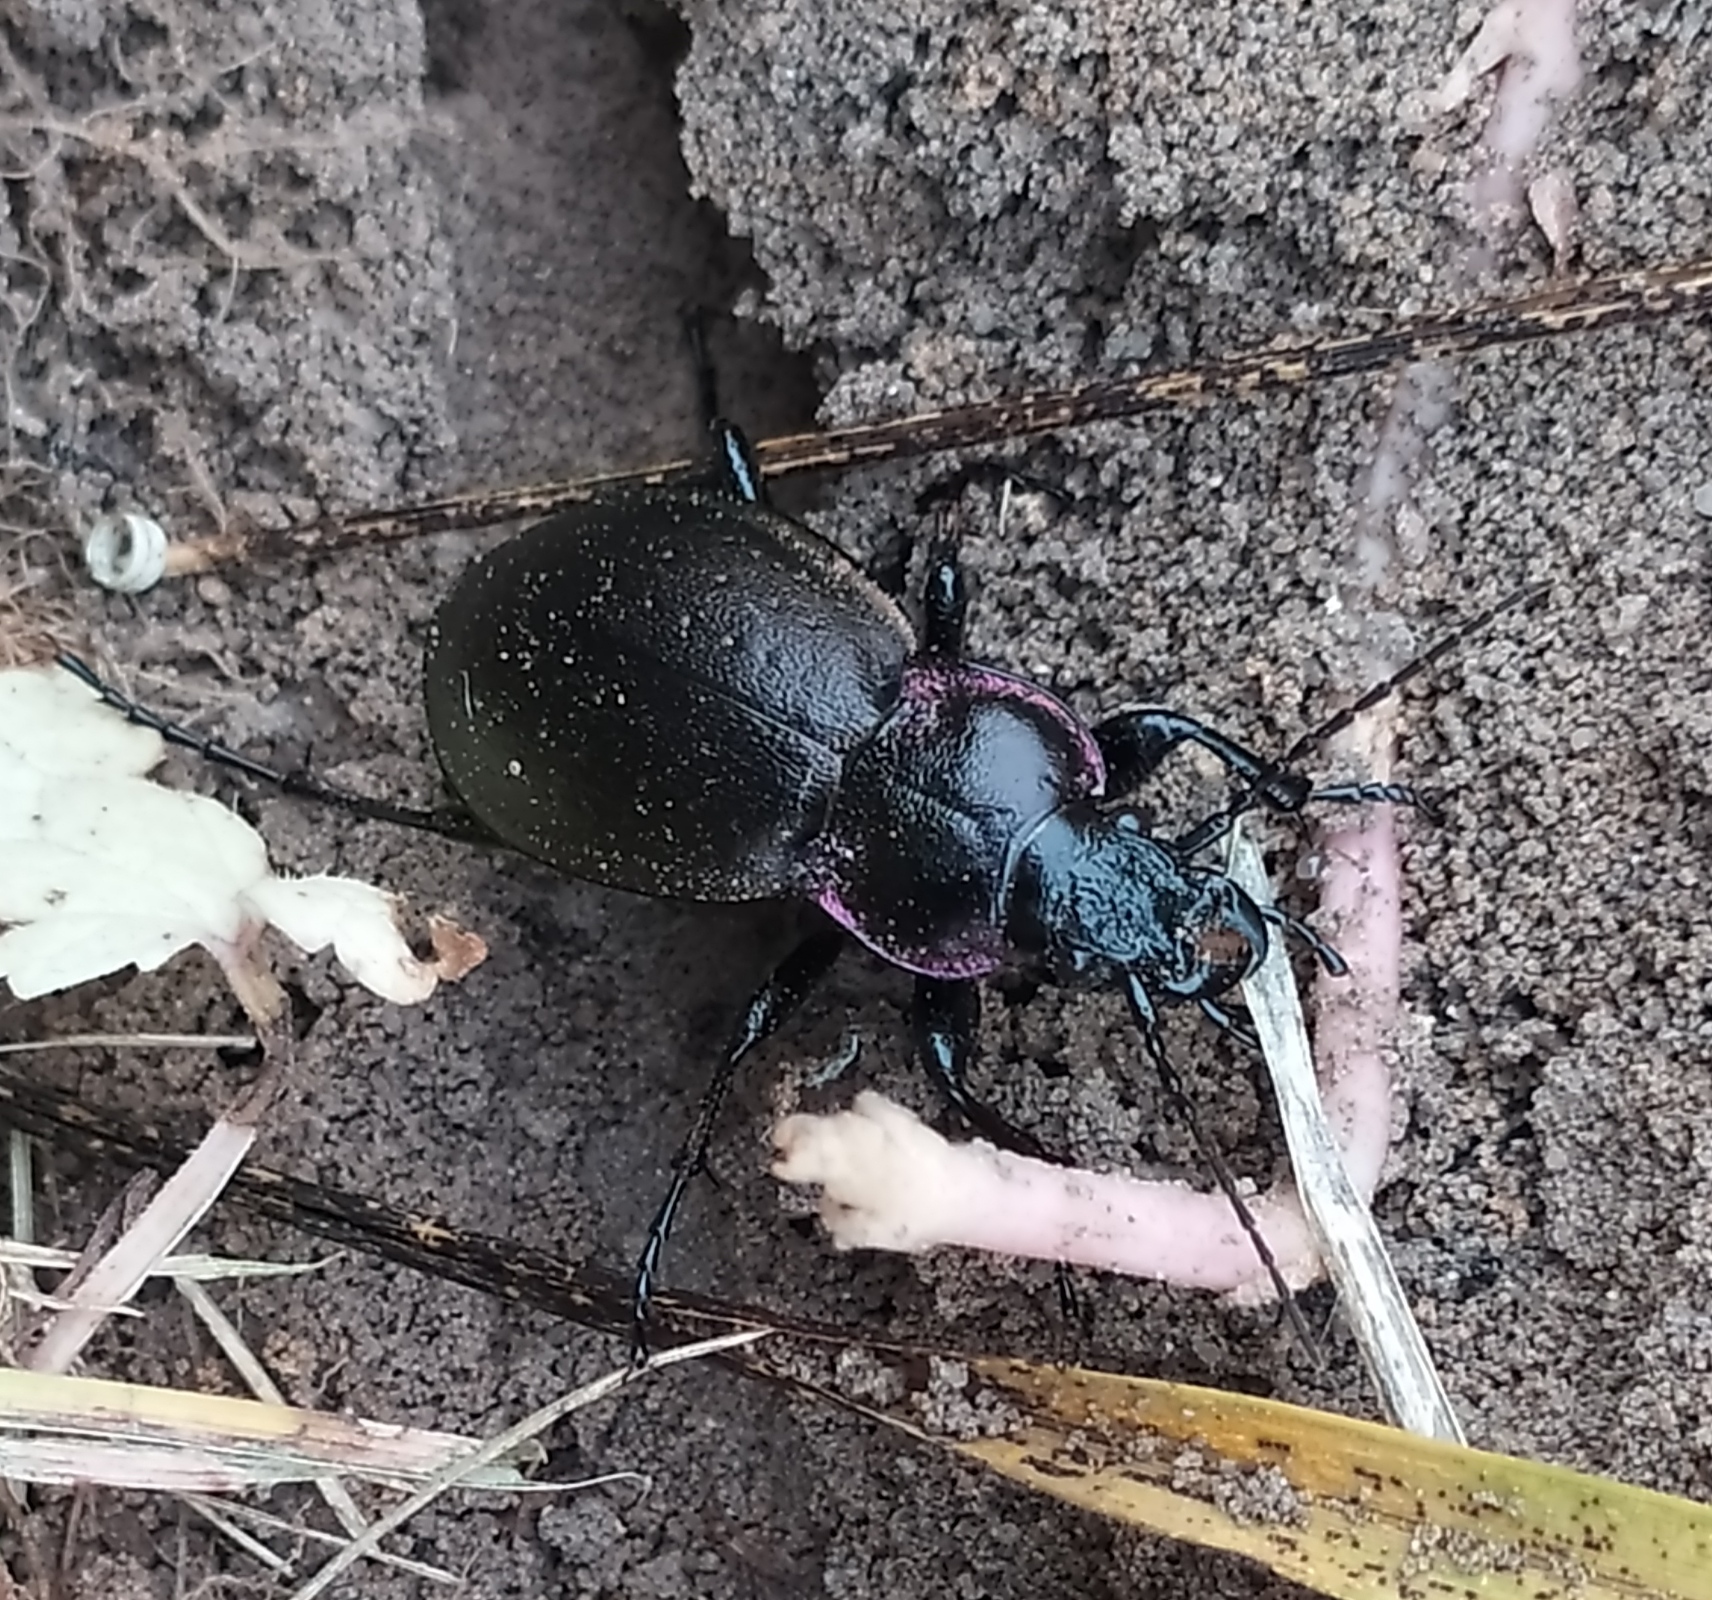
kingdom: Animalia
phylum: Arthropoda
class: Insecta
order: Coleoptera
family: Carabidae
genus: Carabus
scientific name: Carabus nemoralis
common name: European ground beetle
